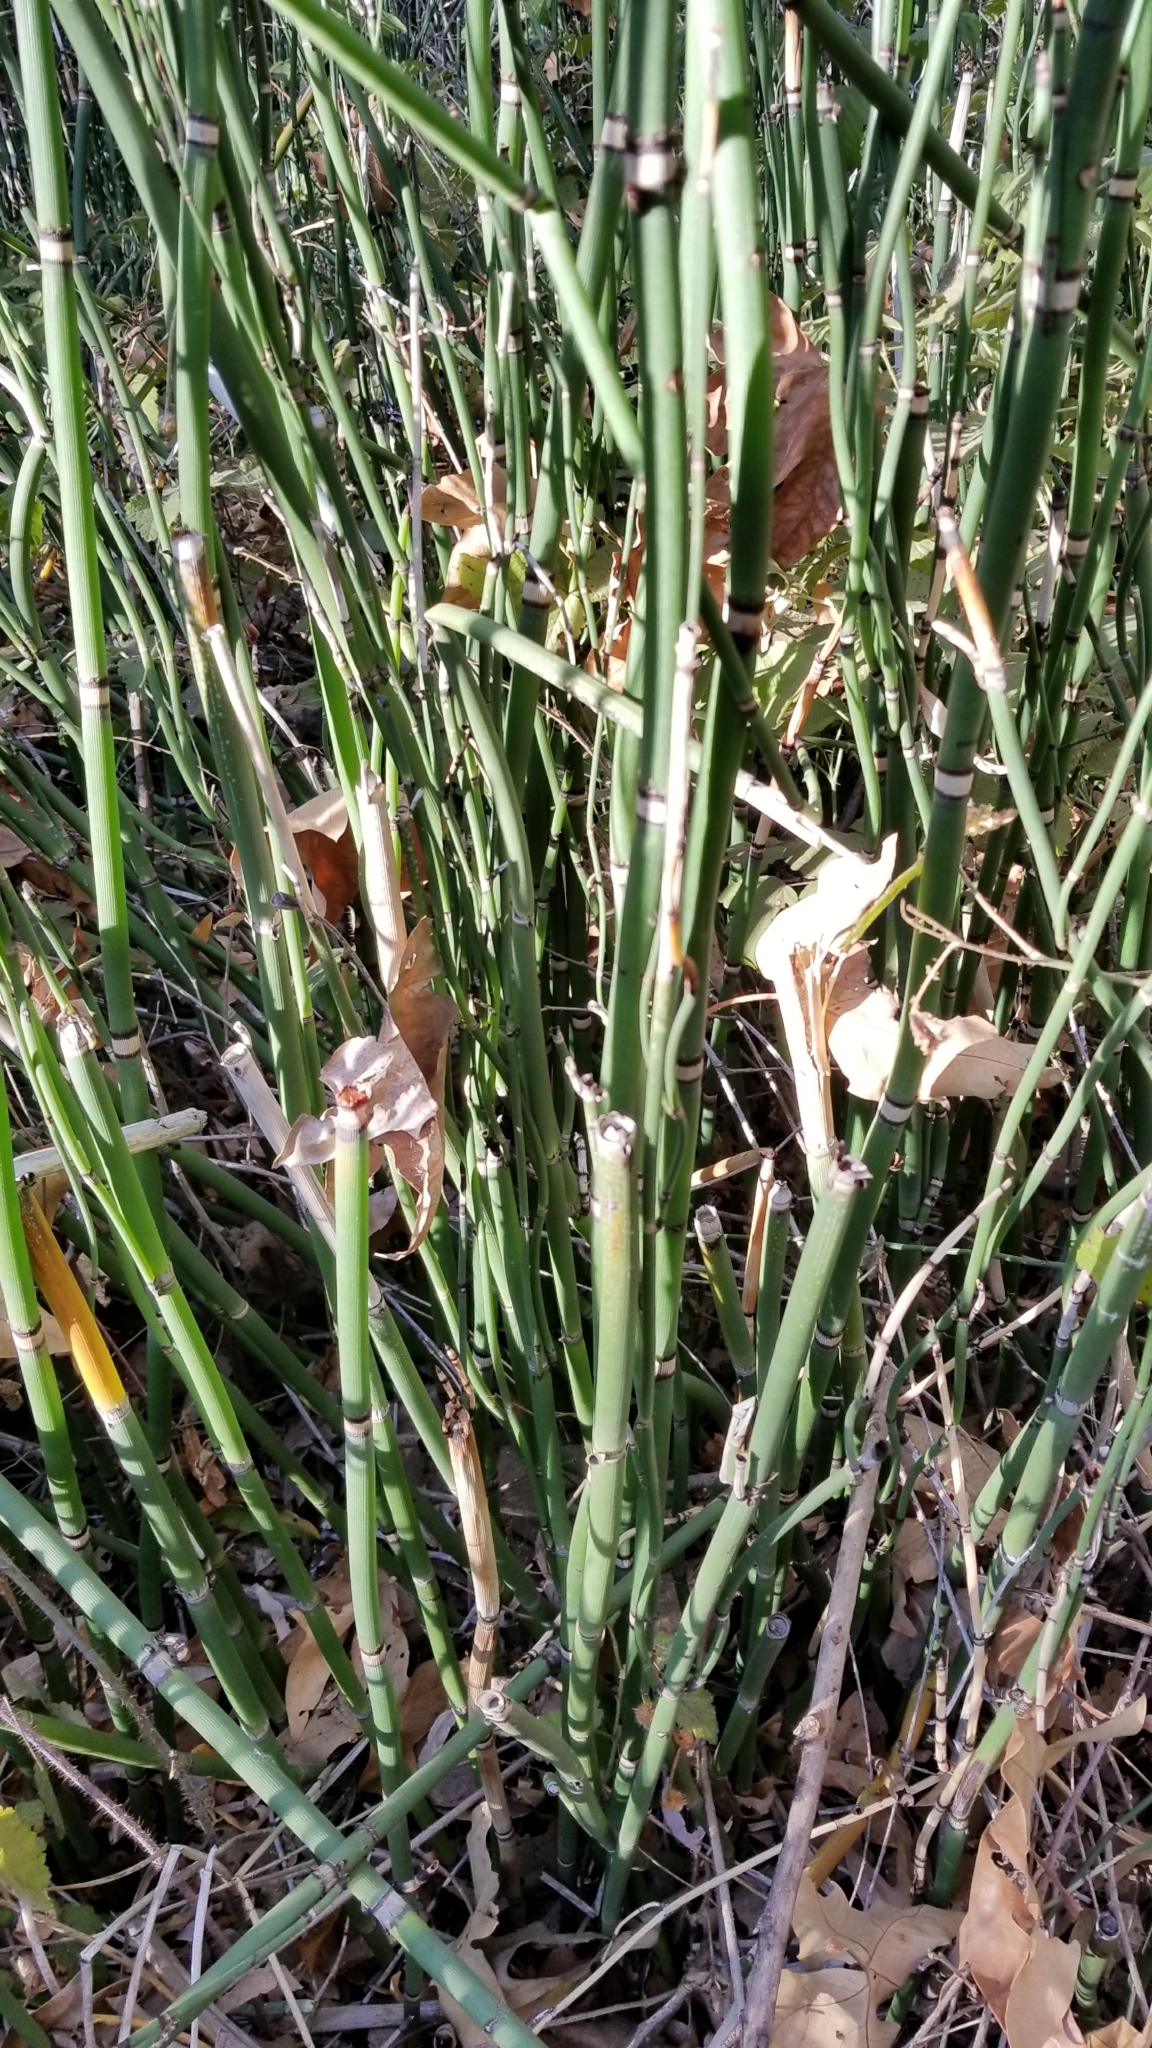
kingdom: Plantae
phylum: Tracheophyta
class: Polypodiopsida
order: Equisetales
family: Equisetaceae
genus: Equisetum
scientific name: Equisetum hyemale
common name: Rough horsetail
